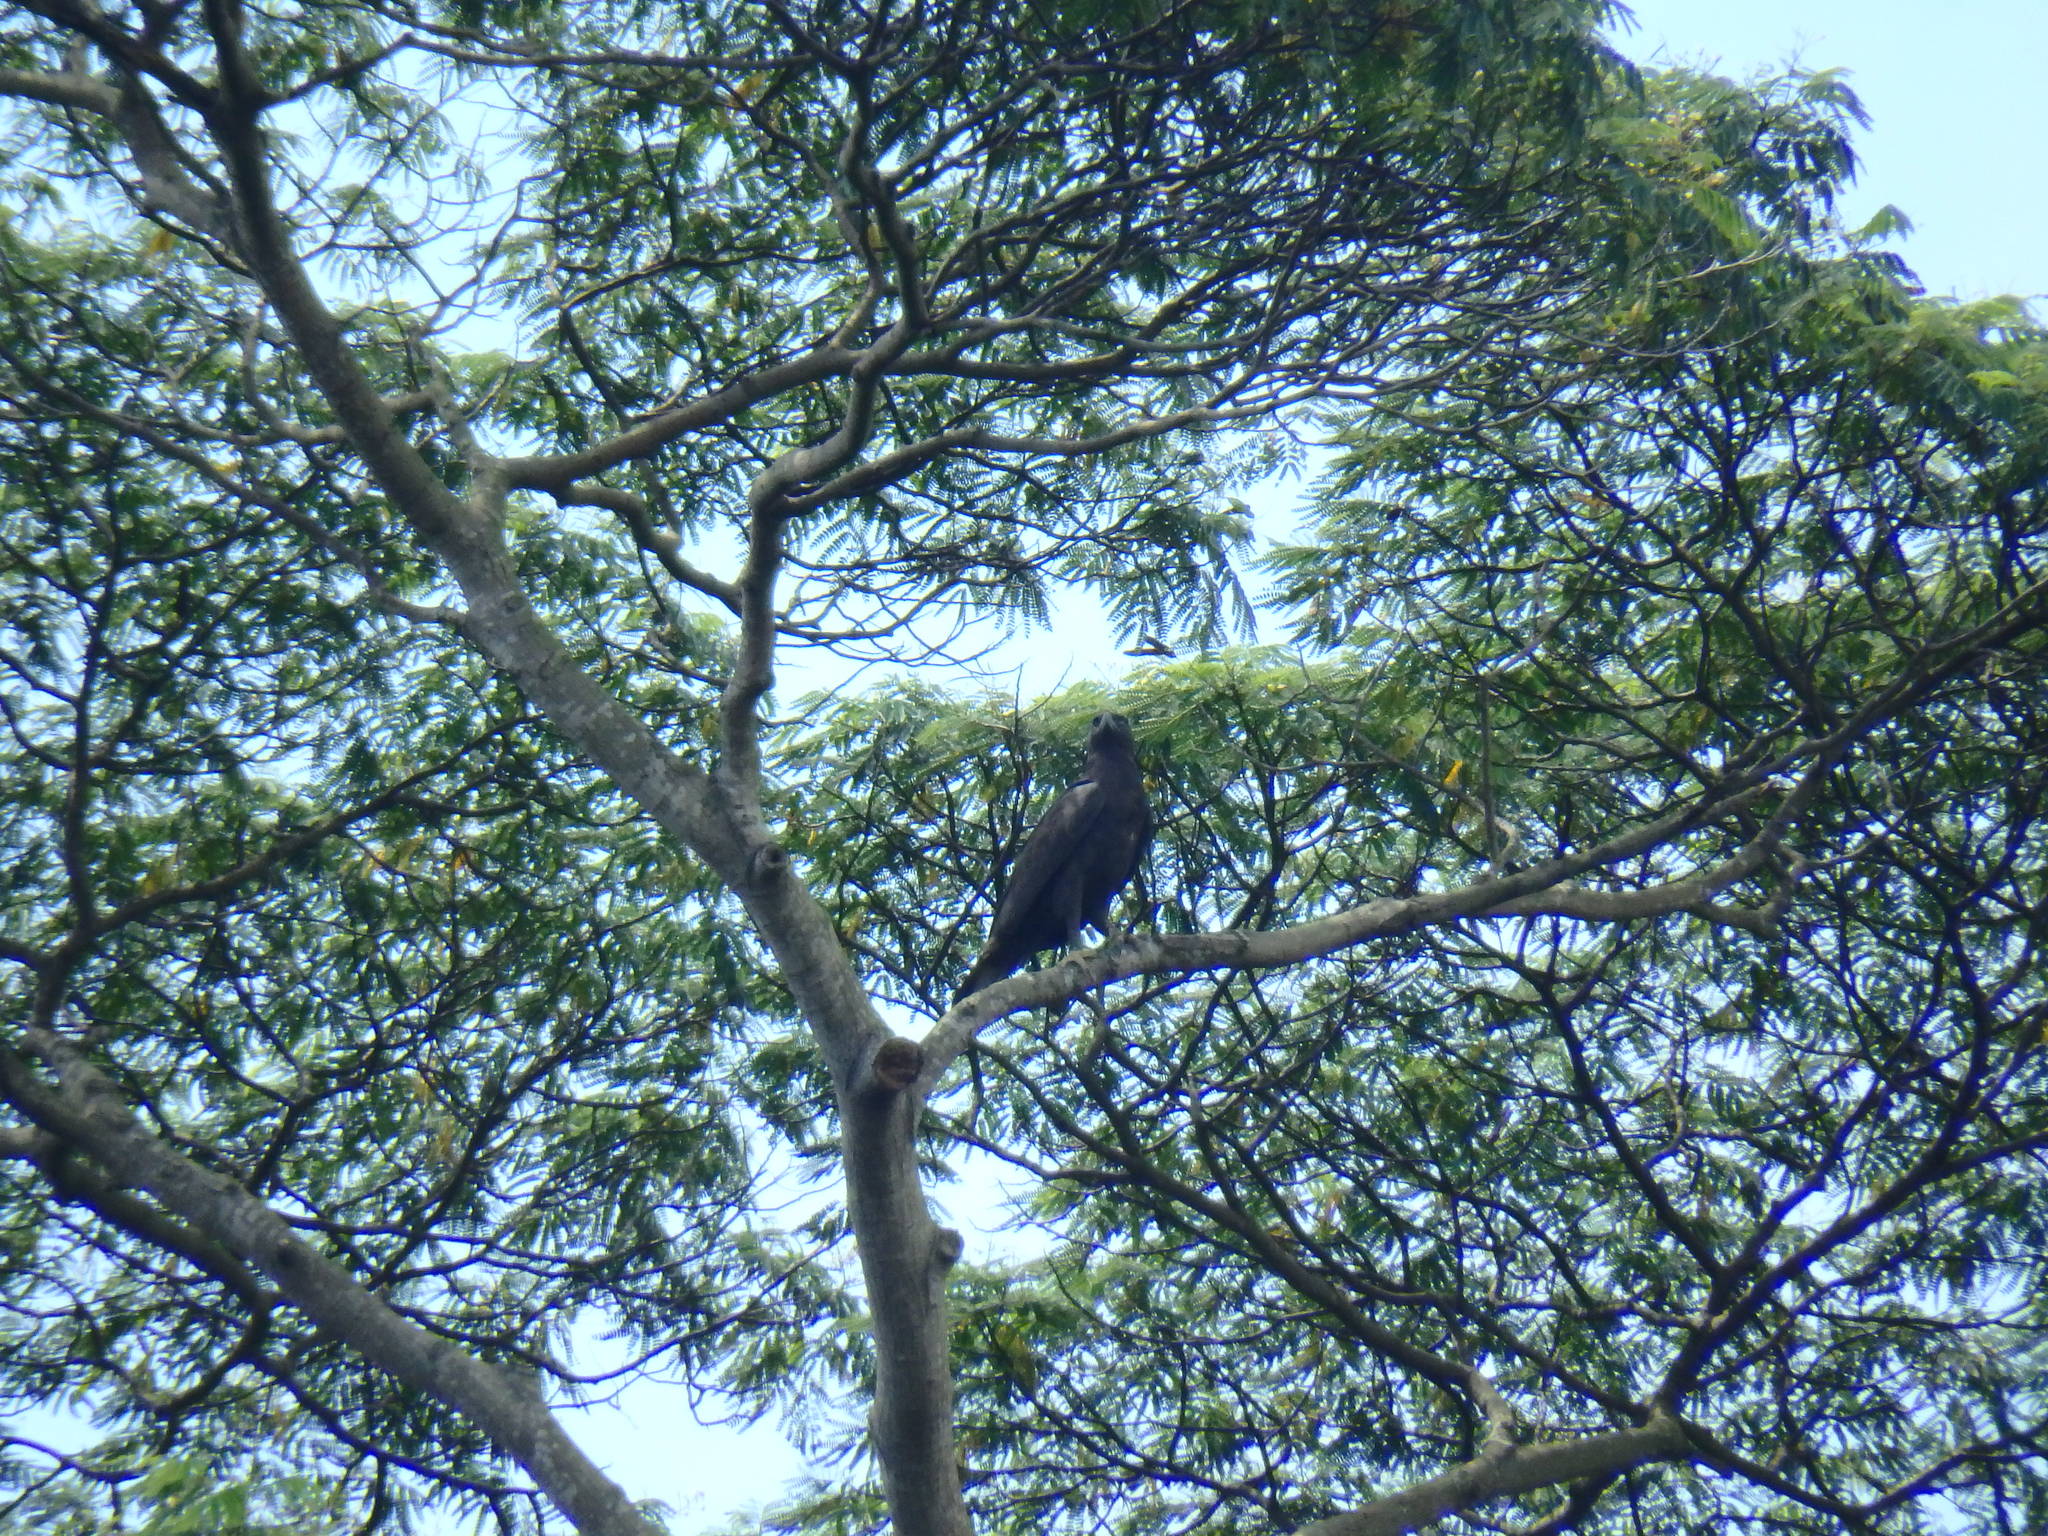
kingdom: Animalia
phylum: Chordata
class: Aves
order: Accipitriformes
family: Accipitridae
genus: Nisaetus
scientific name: Nisaetus cirrhatus
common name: Changeable hawk-eagle
